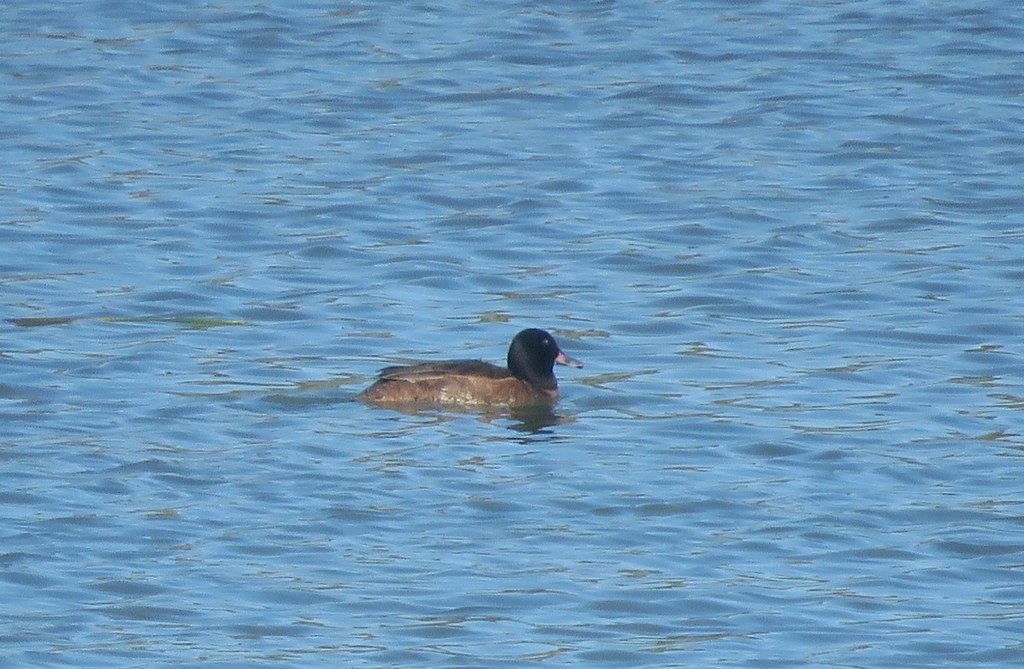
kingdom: Animalia
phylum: Chordata
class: Aves
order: Anseriformes
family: Anatidae
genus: Heteronetta
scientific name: Heteronetta atricapilla
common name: Black-headed duck
